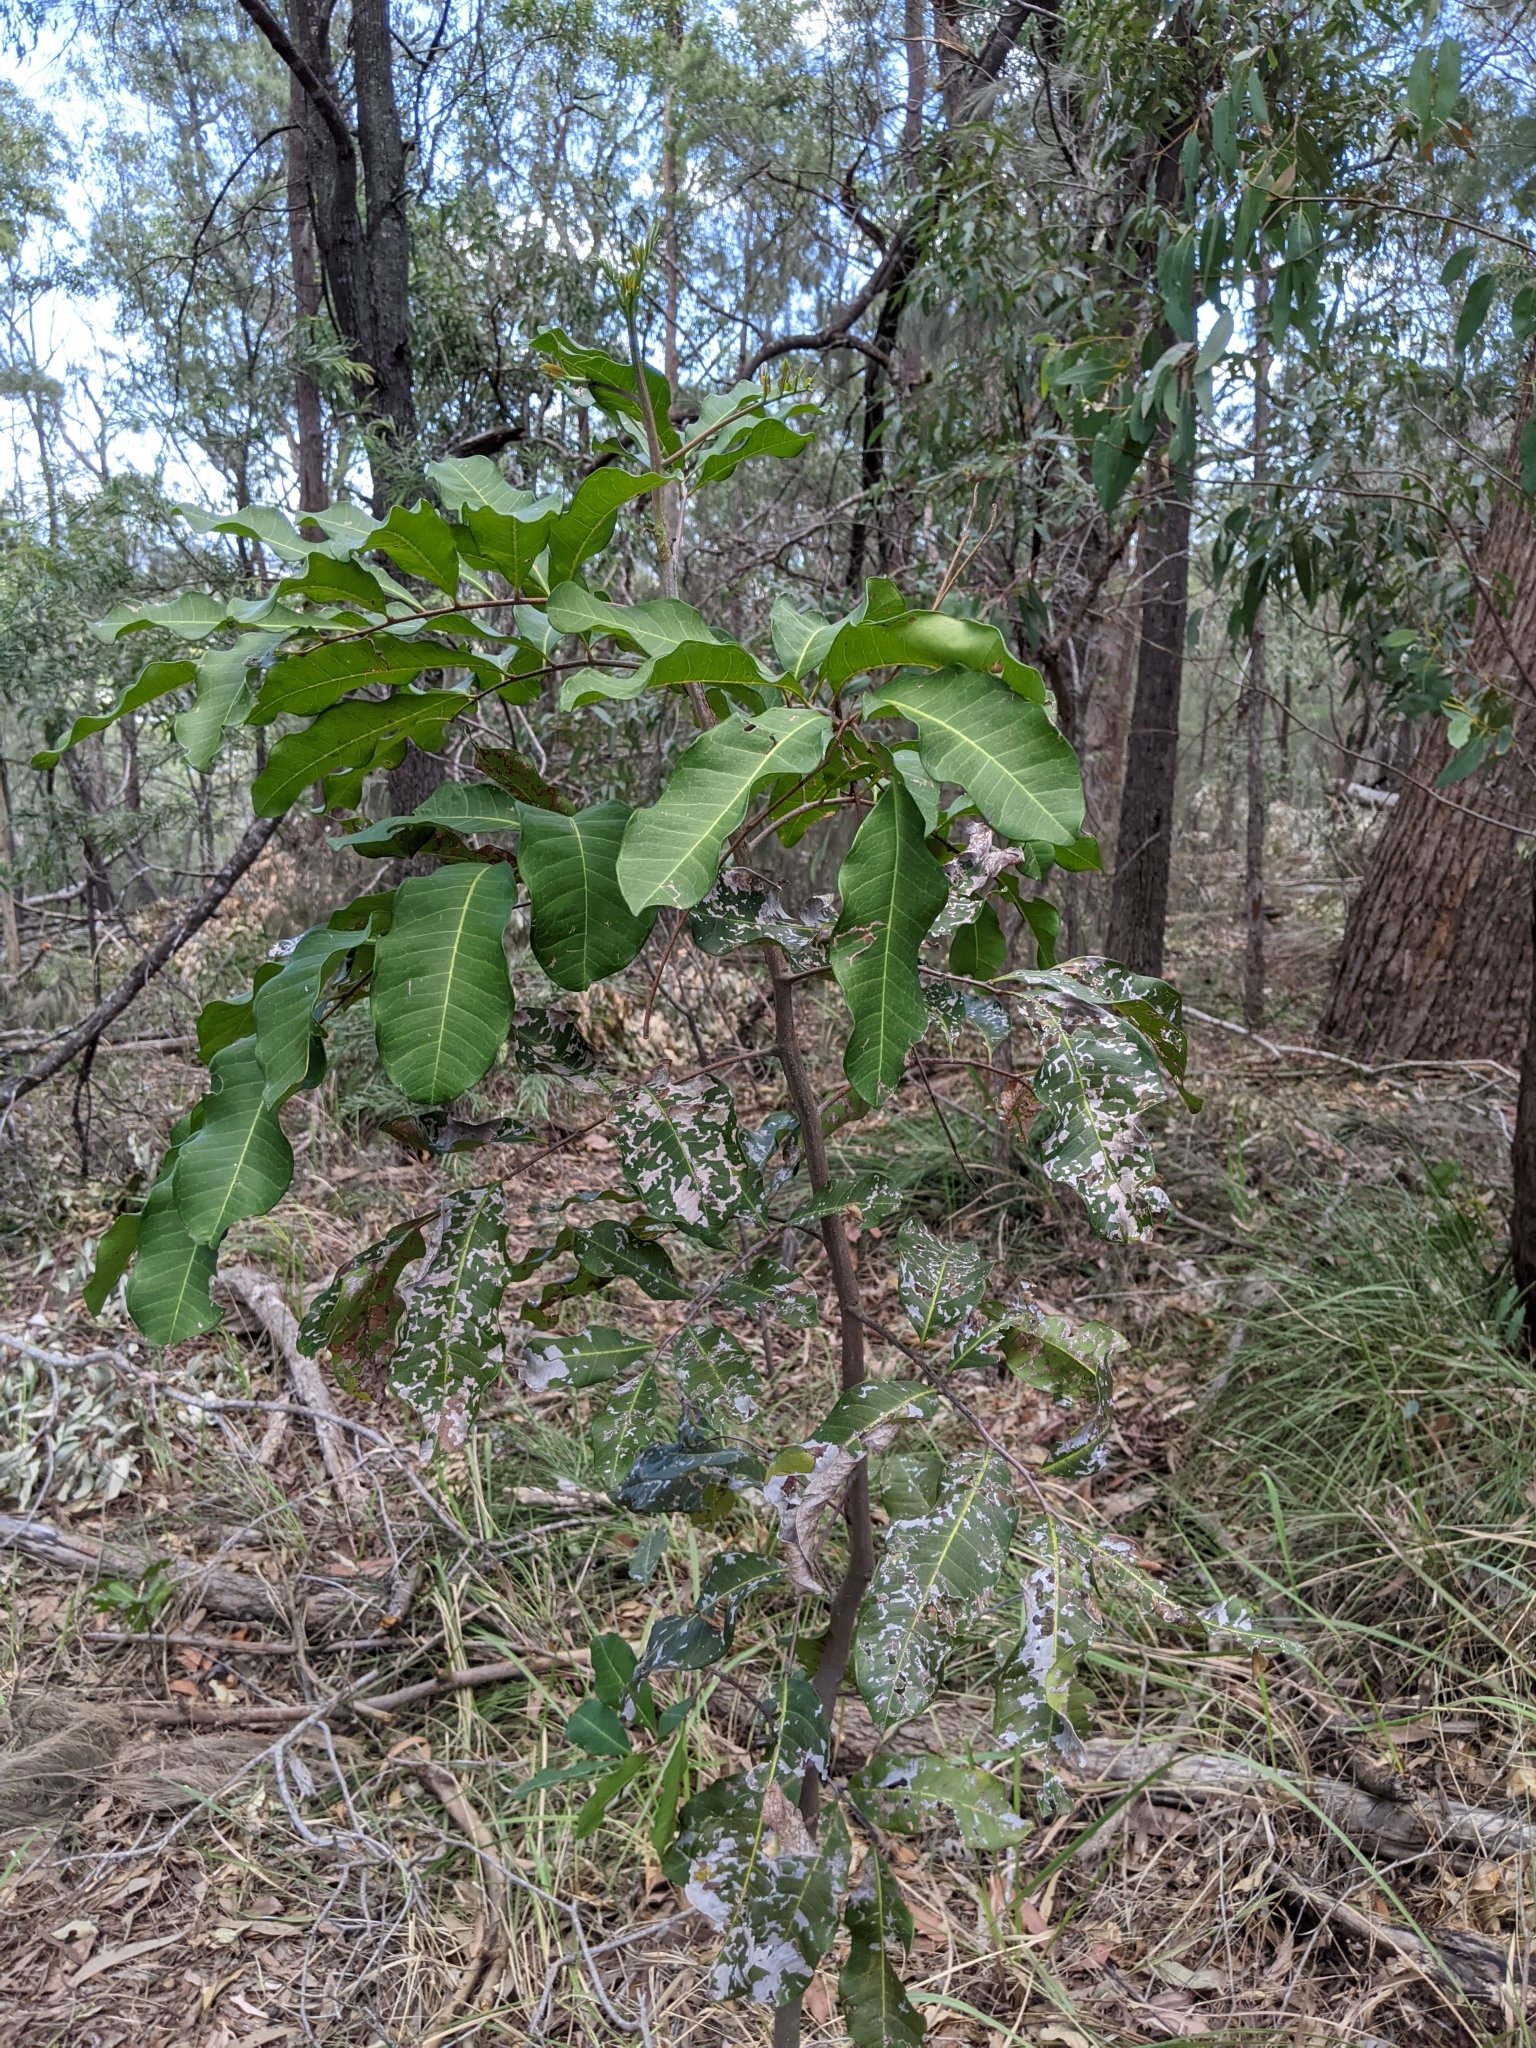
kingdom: Plantae
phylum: Tracheophyta
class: Magnoliopsida
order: Sapindales
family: Sapindaceae
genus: Cupaniopsis
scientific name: Cupaniopsis anacardioides
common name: Carrotwood
